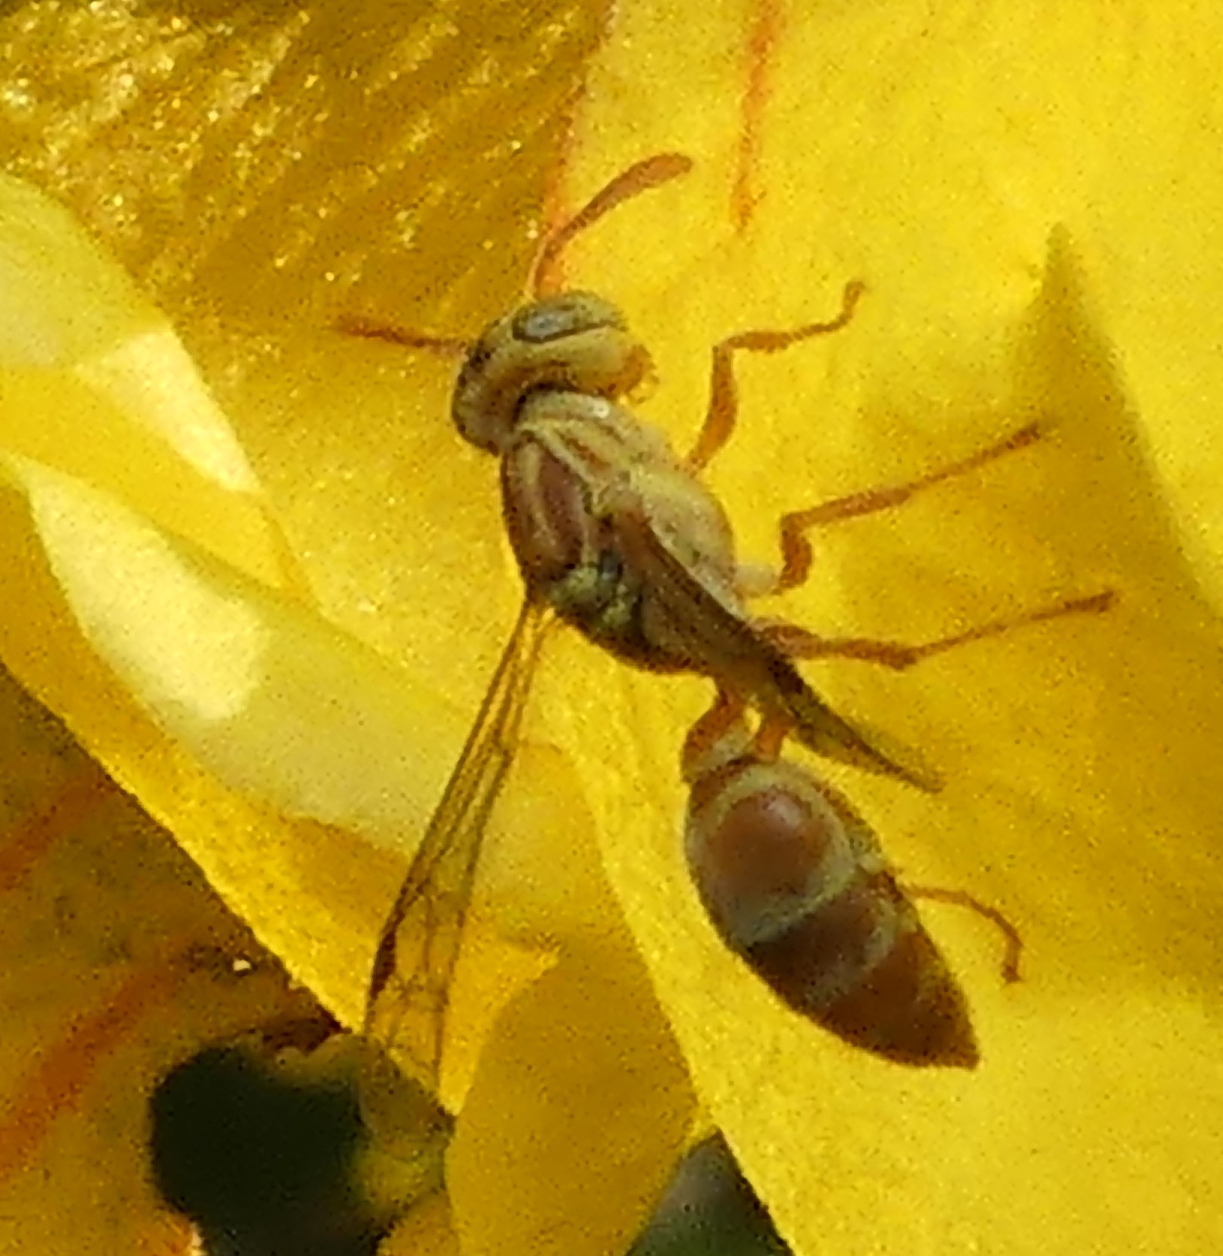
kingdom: Animalia
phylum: Arthropoda
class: Insecta
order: Hymenoptera
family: Vespidae
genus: Protopolybia
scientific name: Protopolybia potiguara
